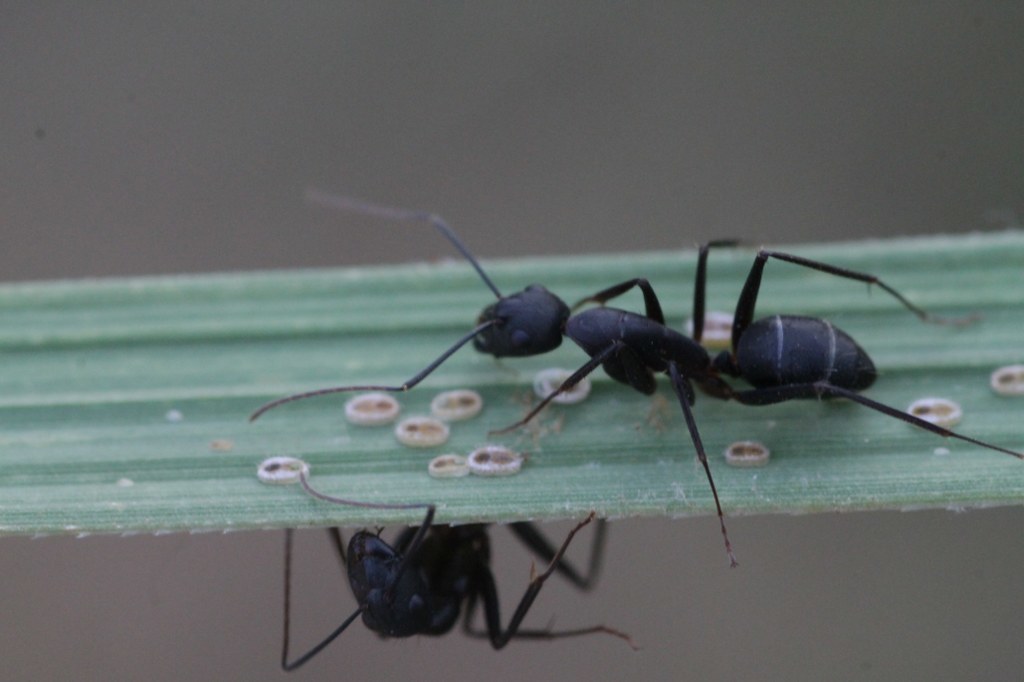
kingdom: Animalia
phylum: Arthropoda
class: Insecta
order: Hymenoptera
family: Formicidae
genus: Camponotus
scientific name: Camponotus compressus
